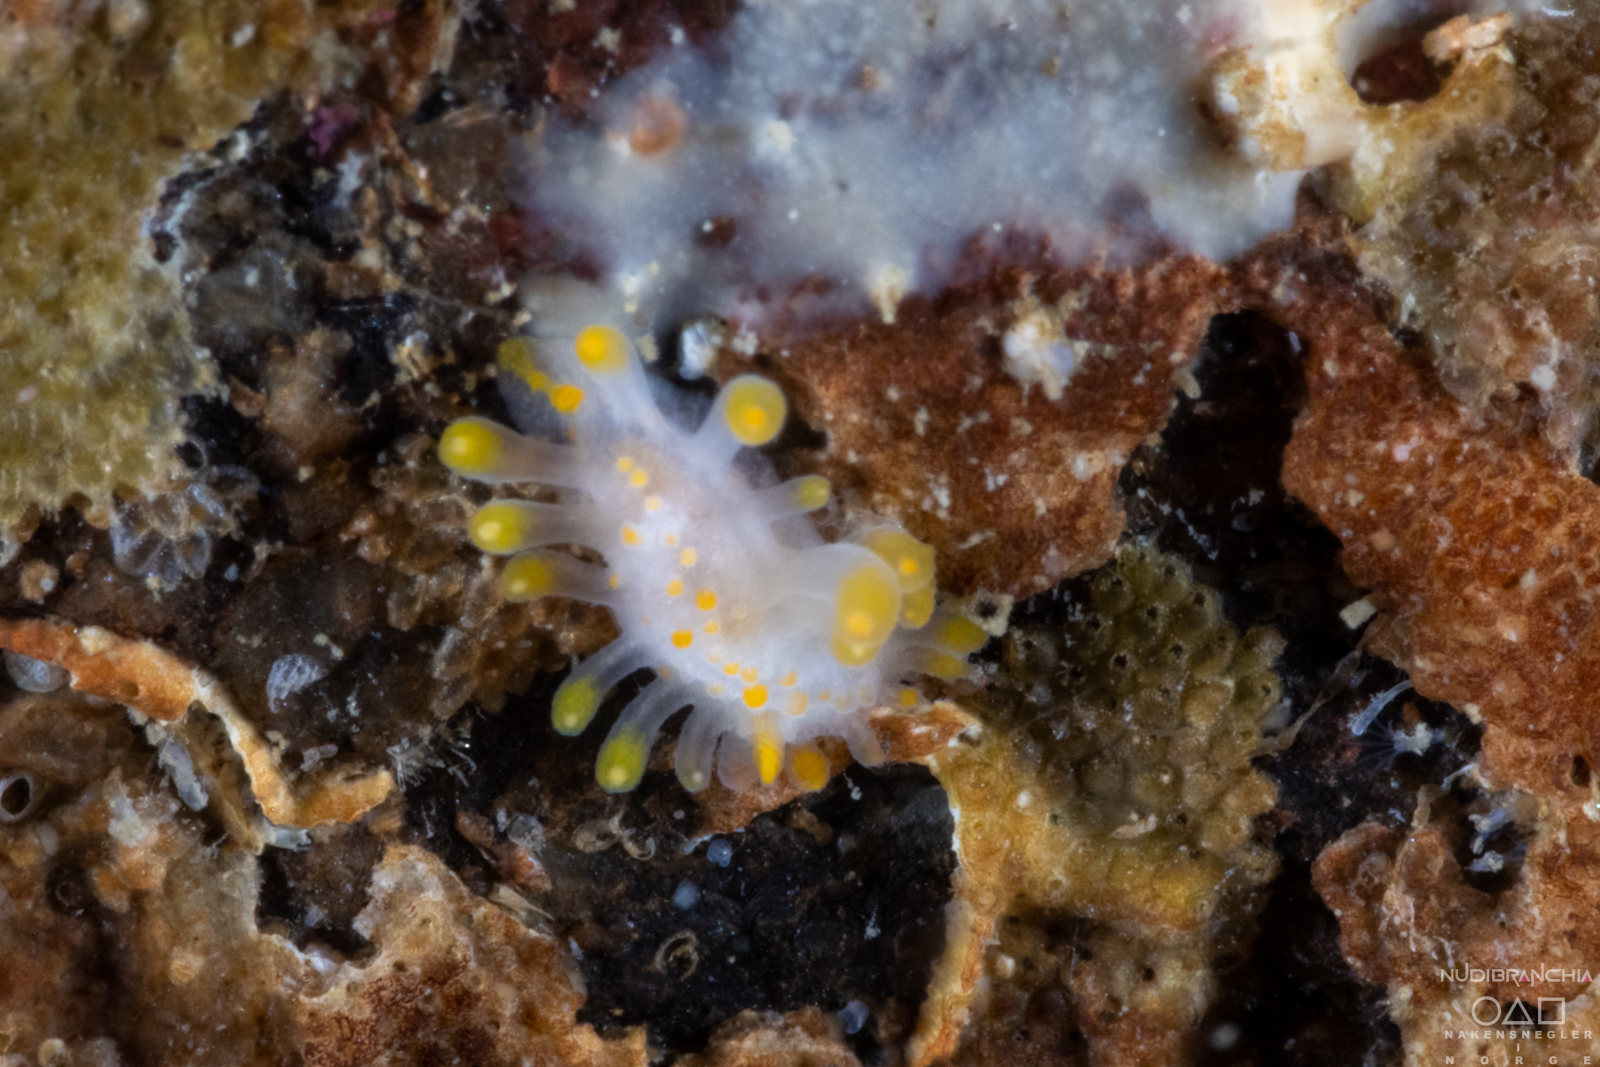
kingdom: Animalia
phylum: Mollusca
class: Gastropoda
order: Nudibranchia
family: Polyceridae
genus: Limacia
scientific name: Limacia clavigera
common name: Orange-clubbed sea slug
